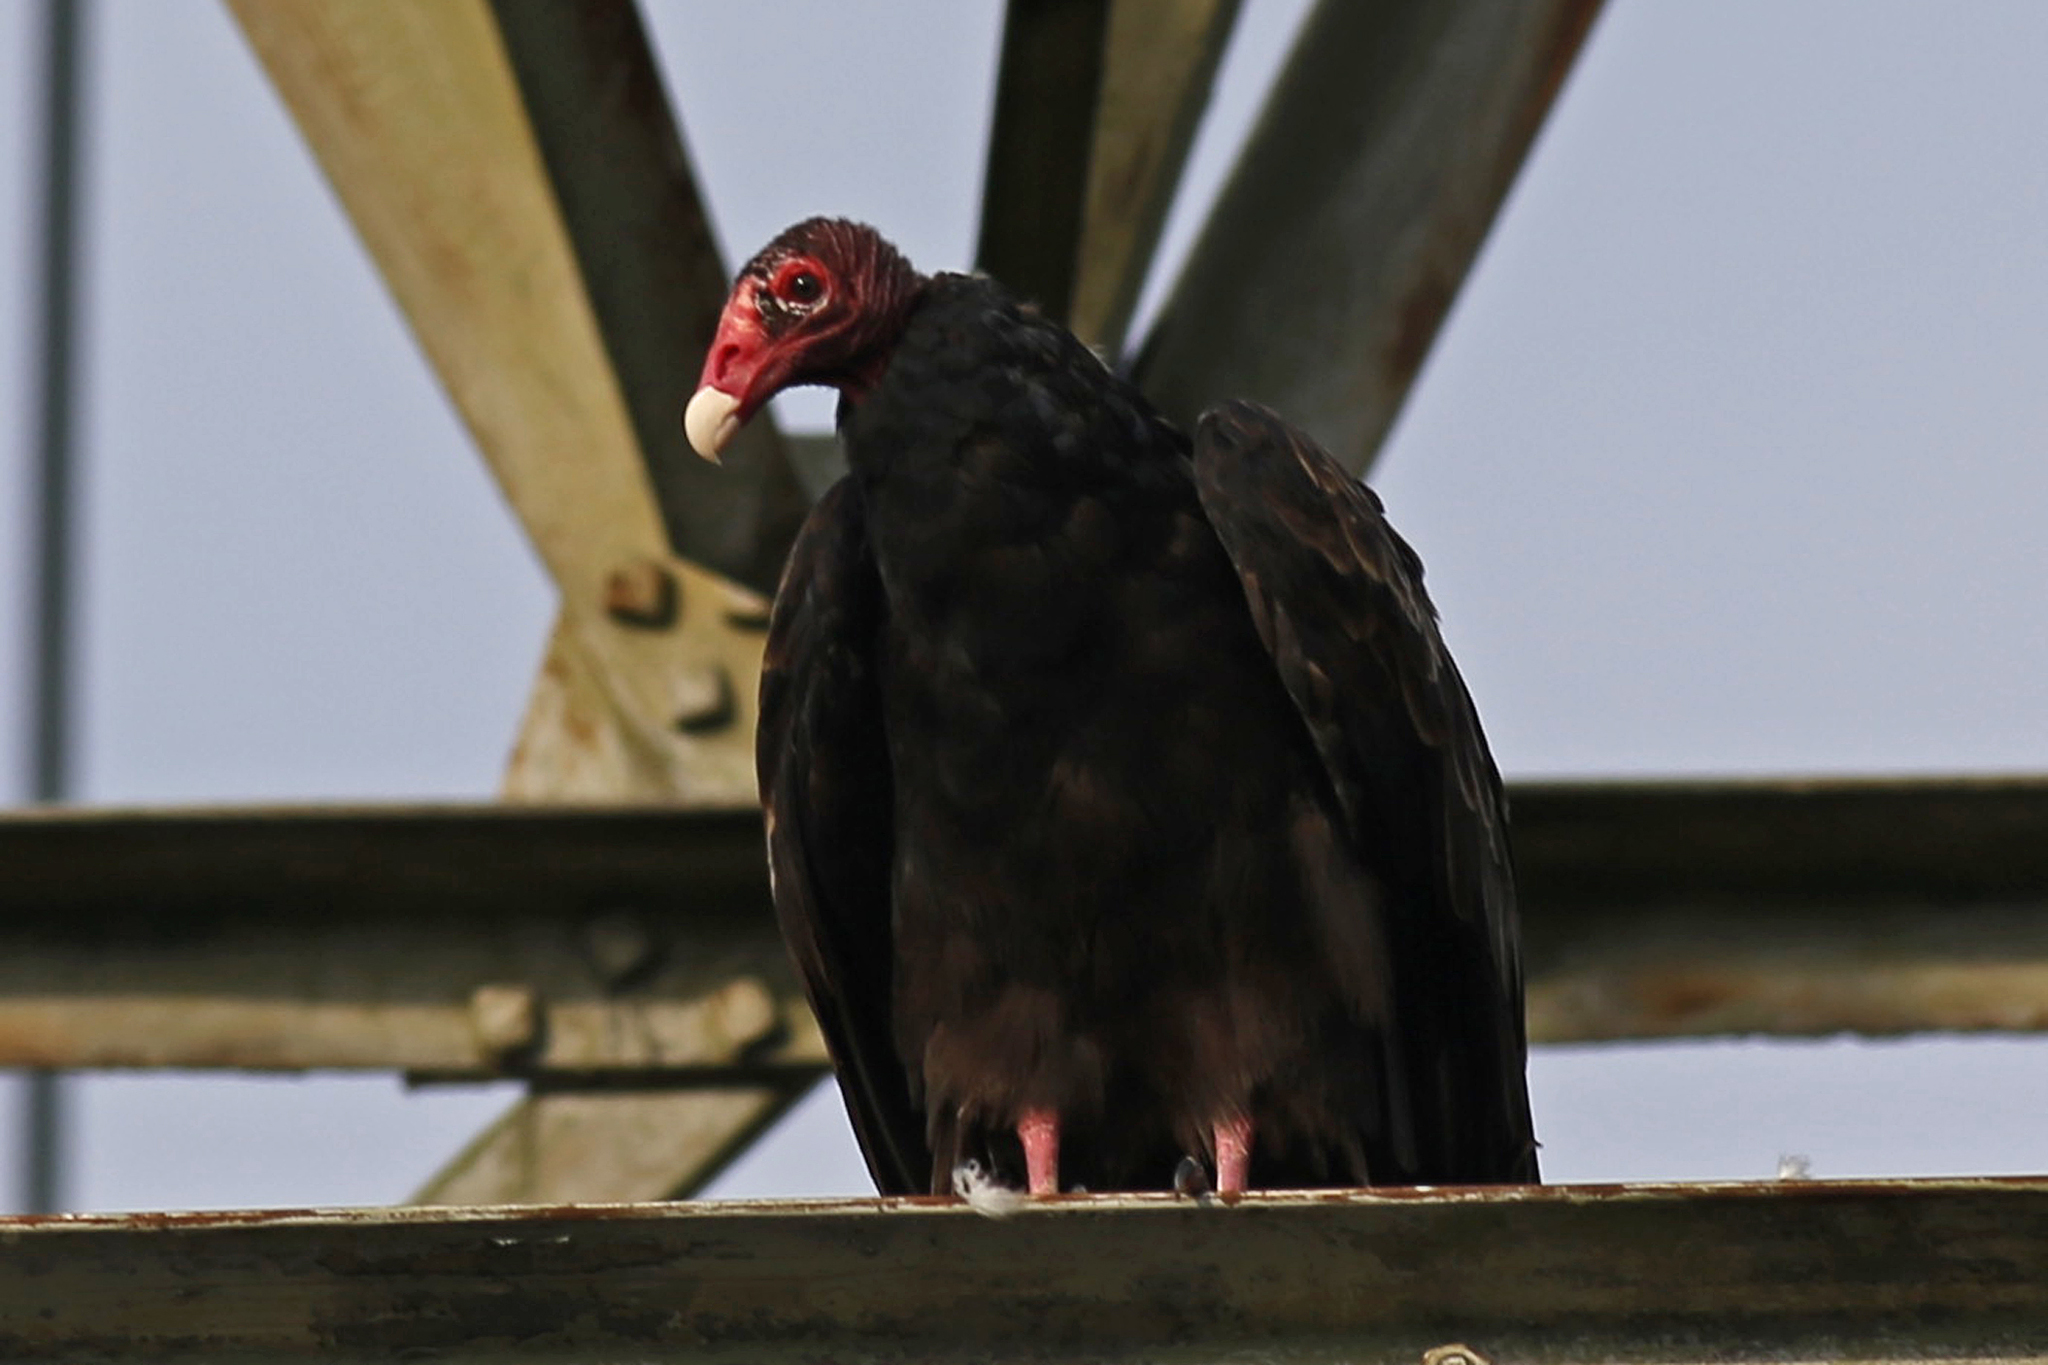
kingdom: Animalia
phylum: Chordata
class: Aves
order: Accipitriformes
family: Cathartidae
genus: Cathartes
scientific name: Cathartes aura
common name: Turkey vulture
